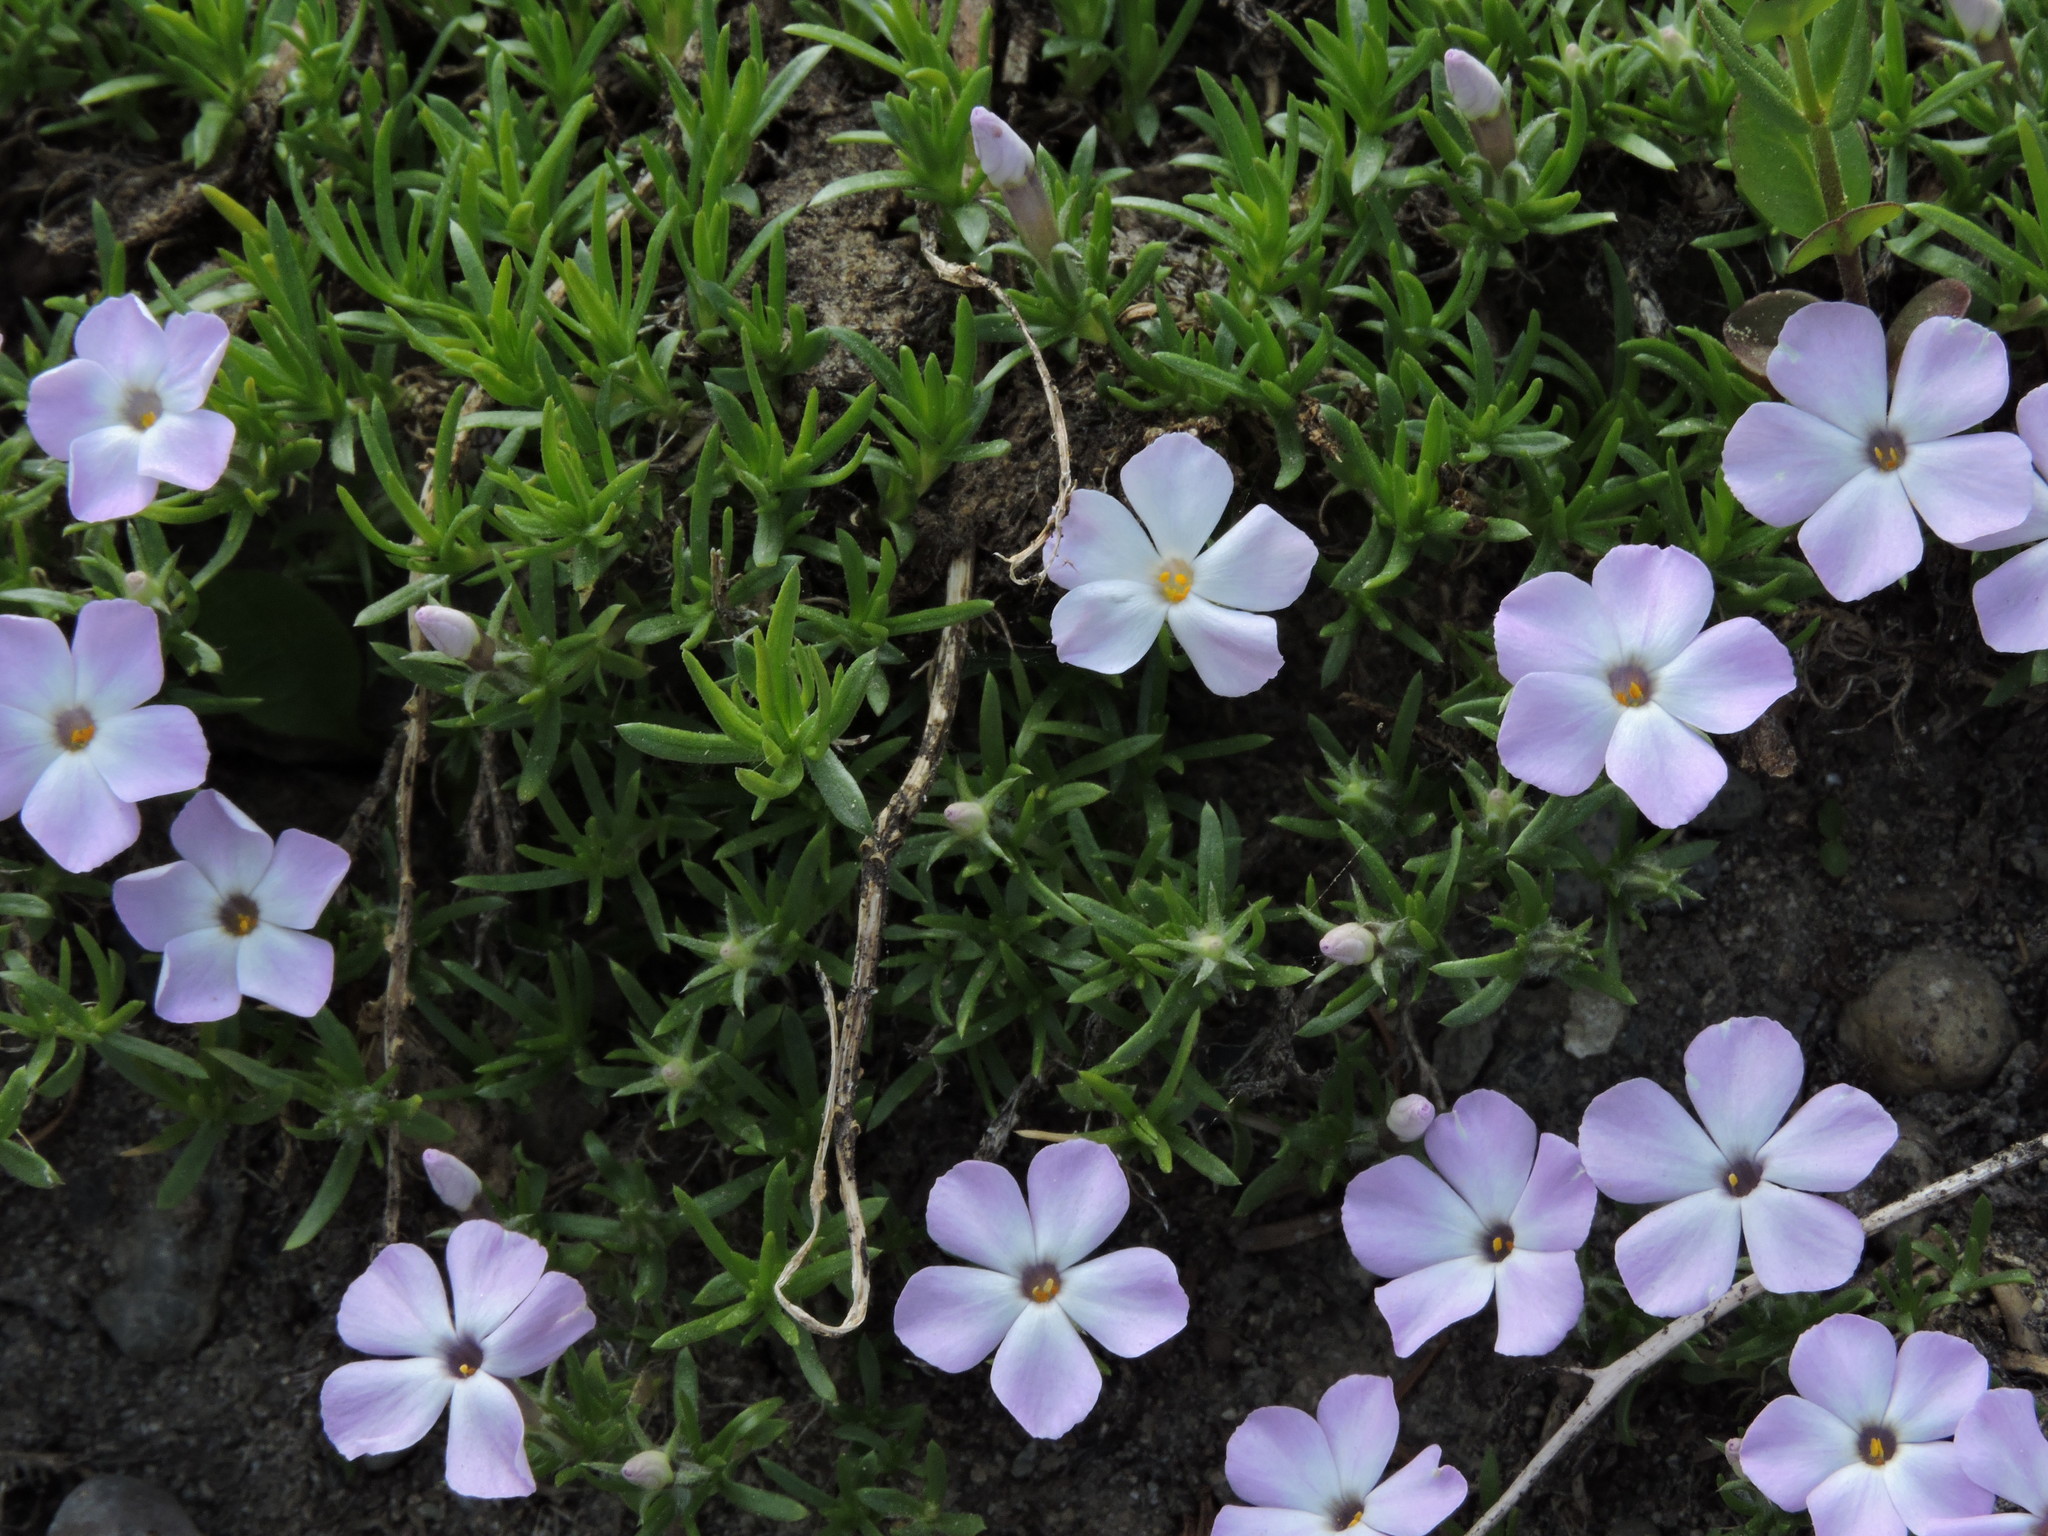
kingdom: Plantae
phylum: Tracheophyta
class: Magnoliopsida
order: Ericales
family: Polemoniaceae
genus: Phlox
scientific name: Phlox diffusa
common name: Mat phlox
